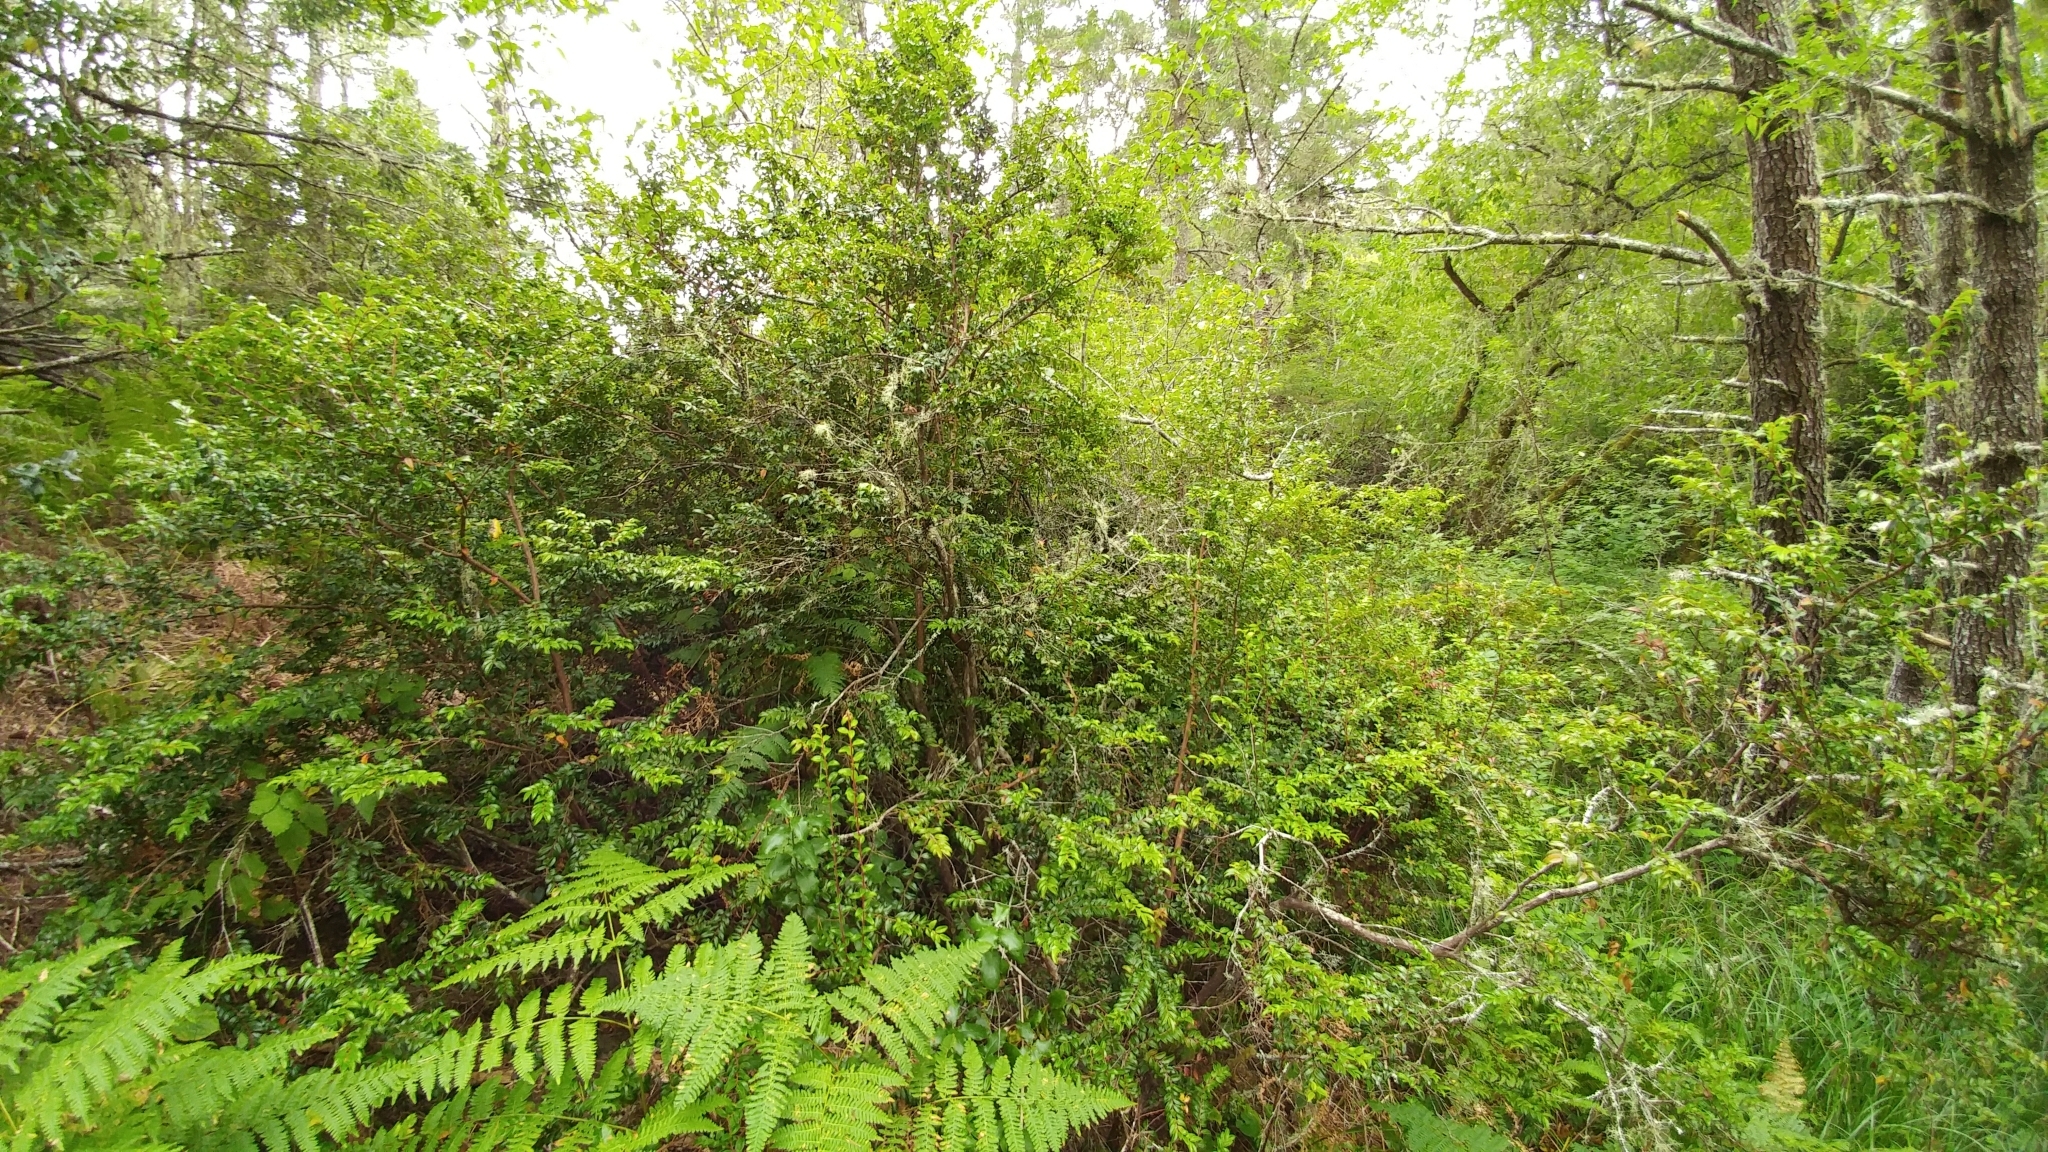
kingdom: Plantae
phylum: Tracheophyta
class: Magnoliopsida
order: Ericales
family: Ericaceae
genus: Vaccinium
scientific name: Vaccinium ovatum
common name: California-huckleberry
